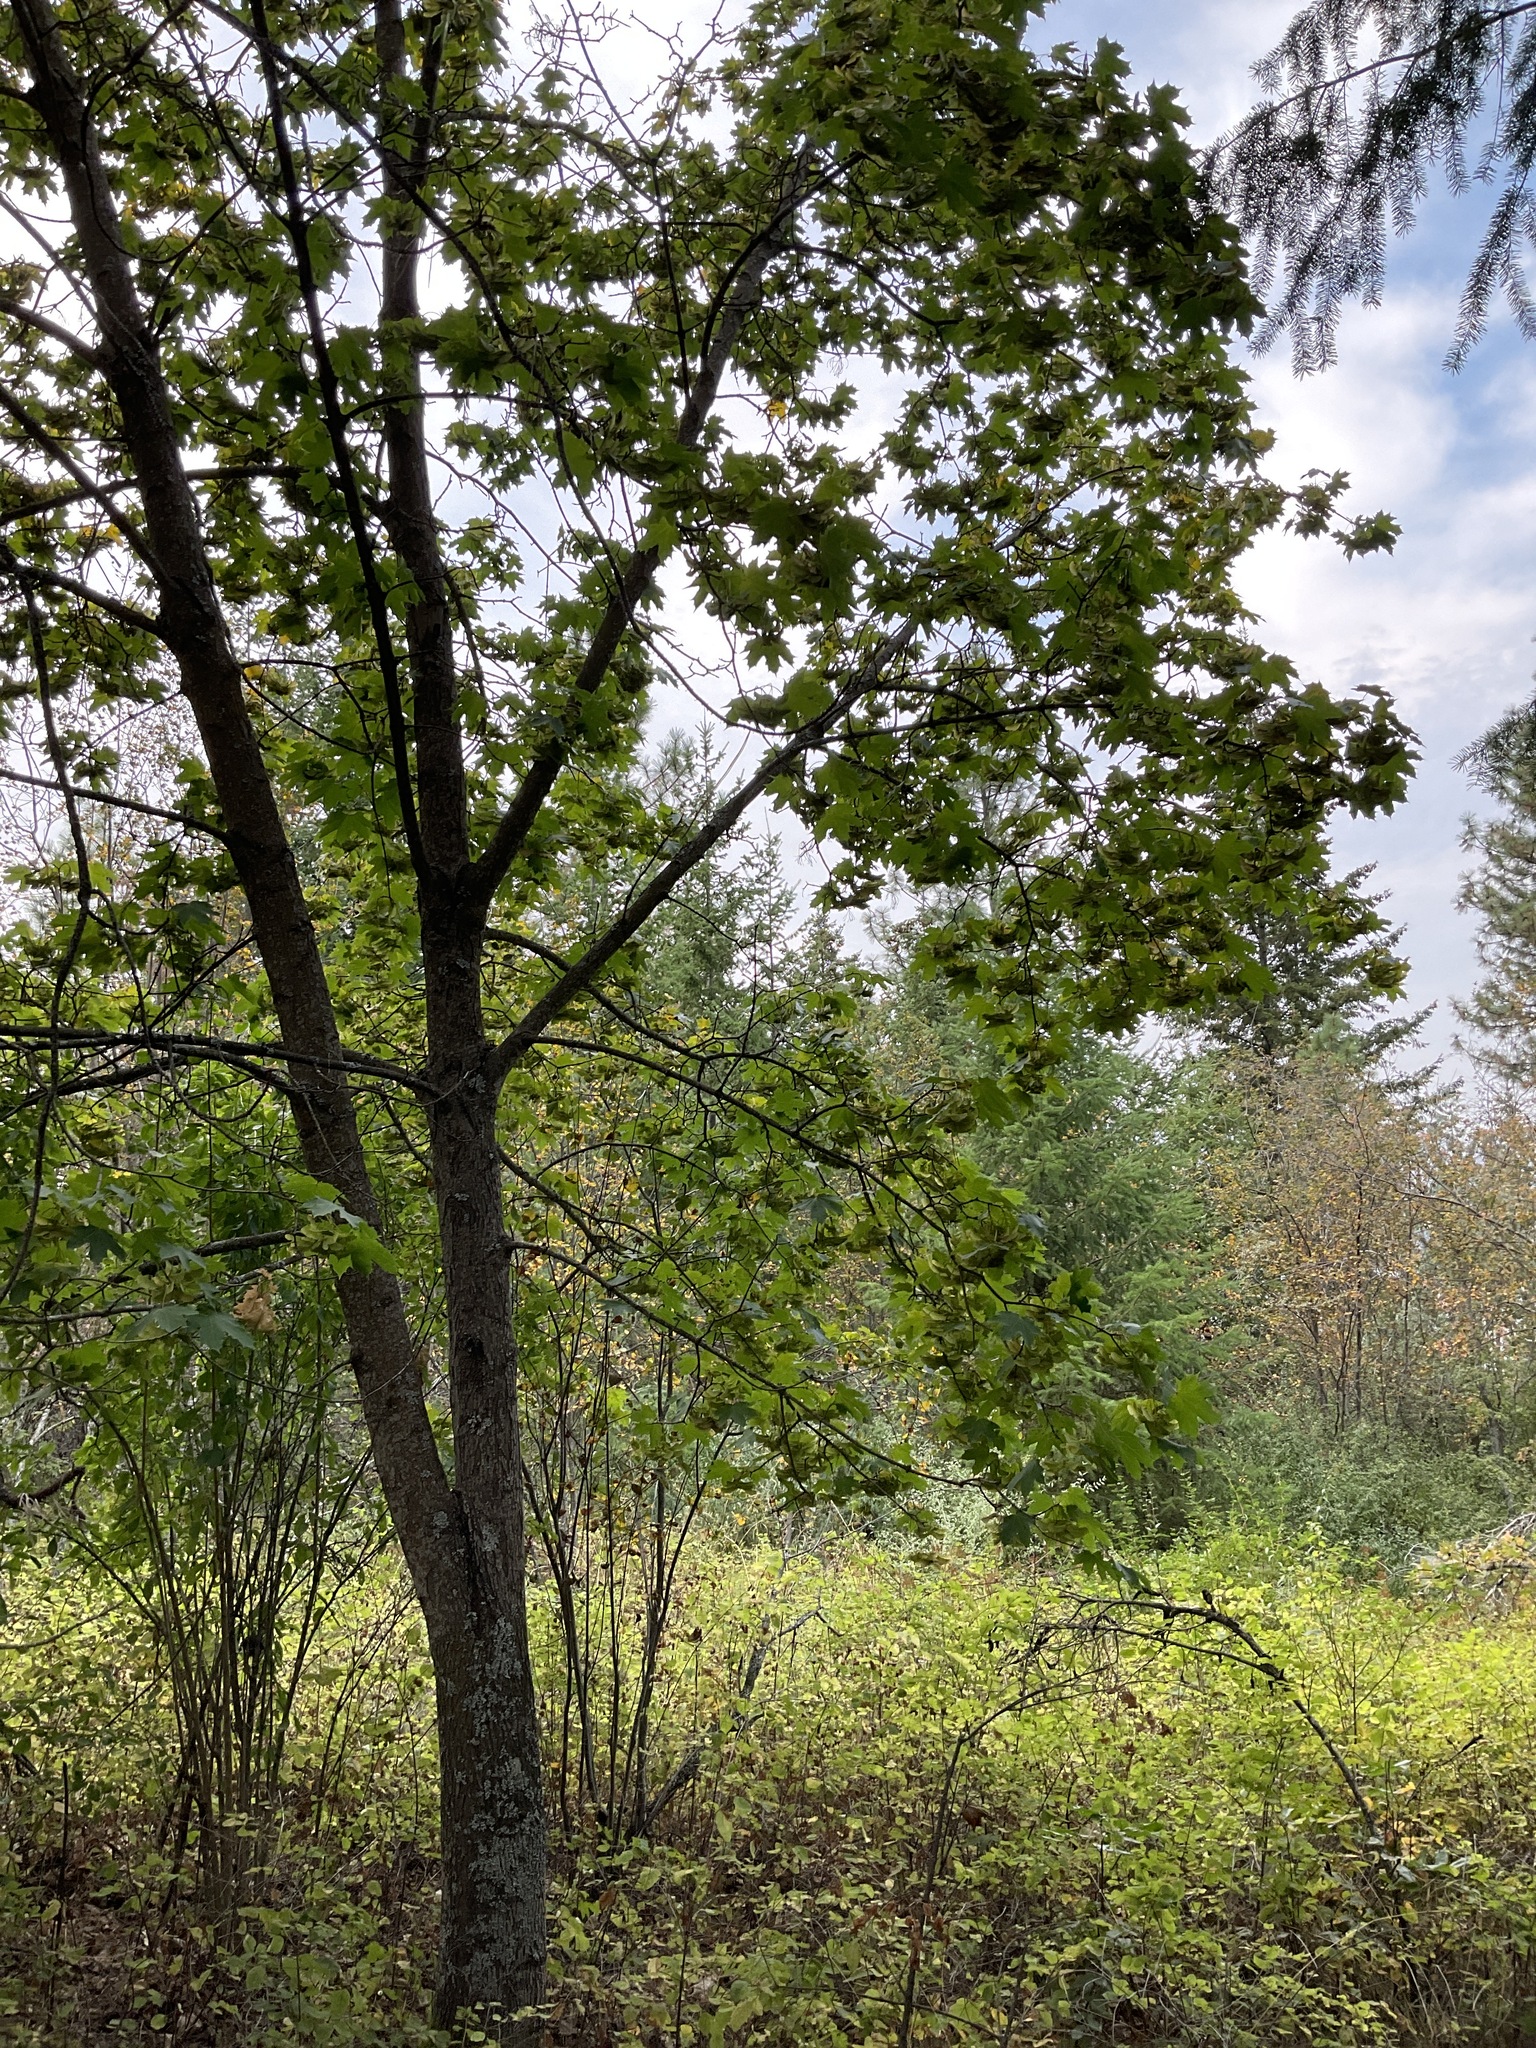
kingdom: Plantae
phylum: Tracheophyta
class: Magnoliopsida
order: Sapindales
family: Sapindaceae
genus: Acer
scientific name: Acer platanoides
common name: Norway maple
